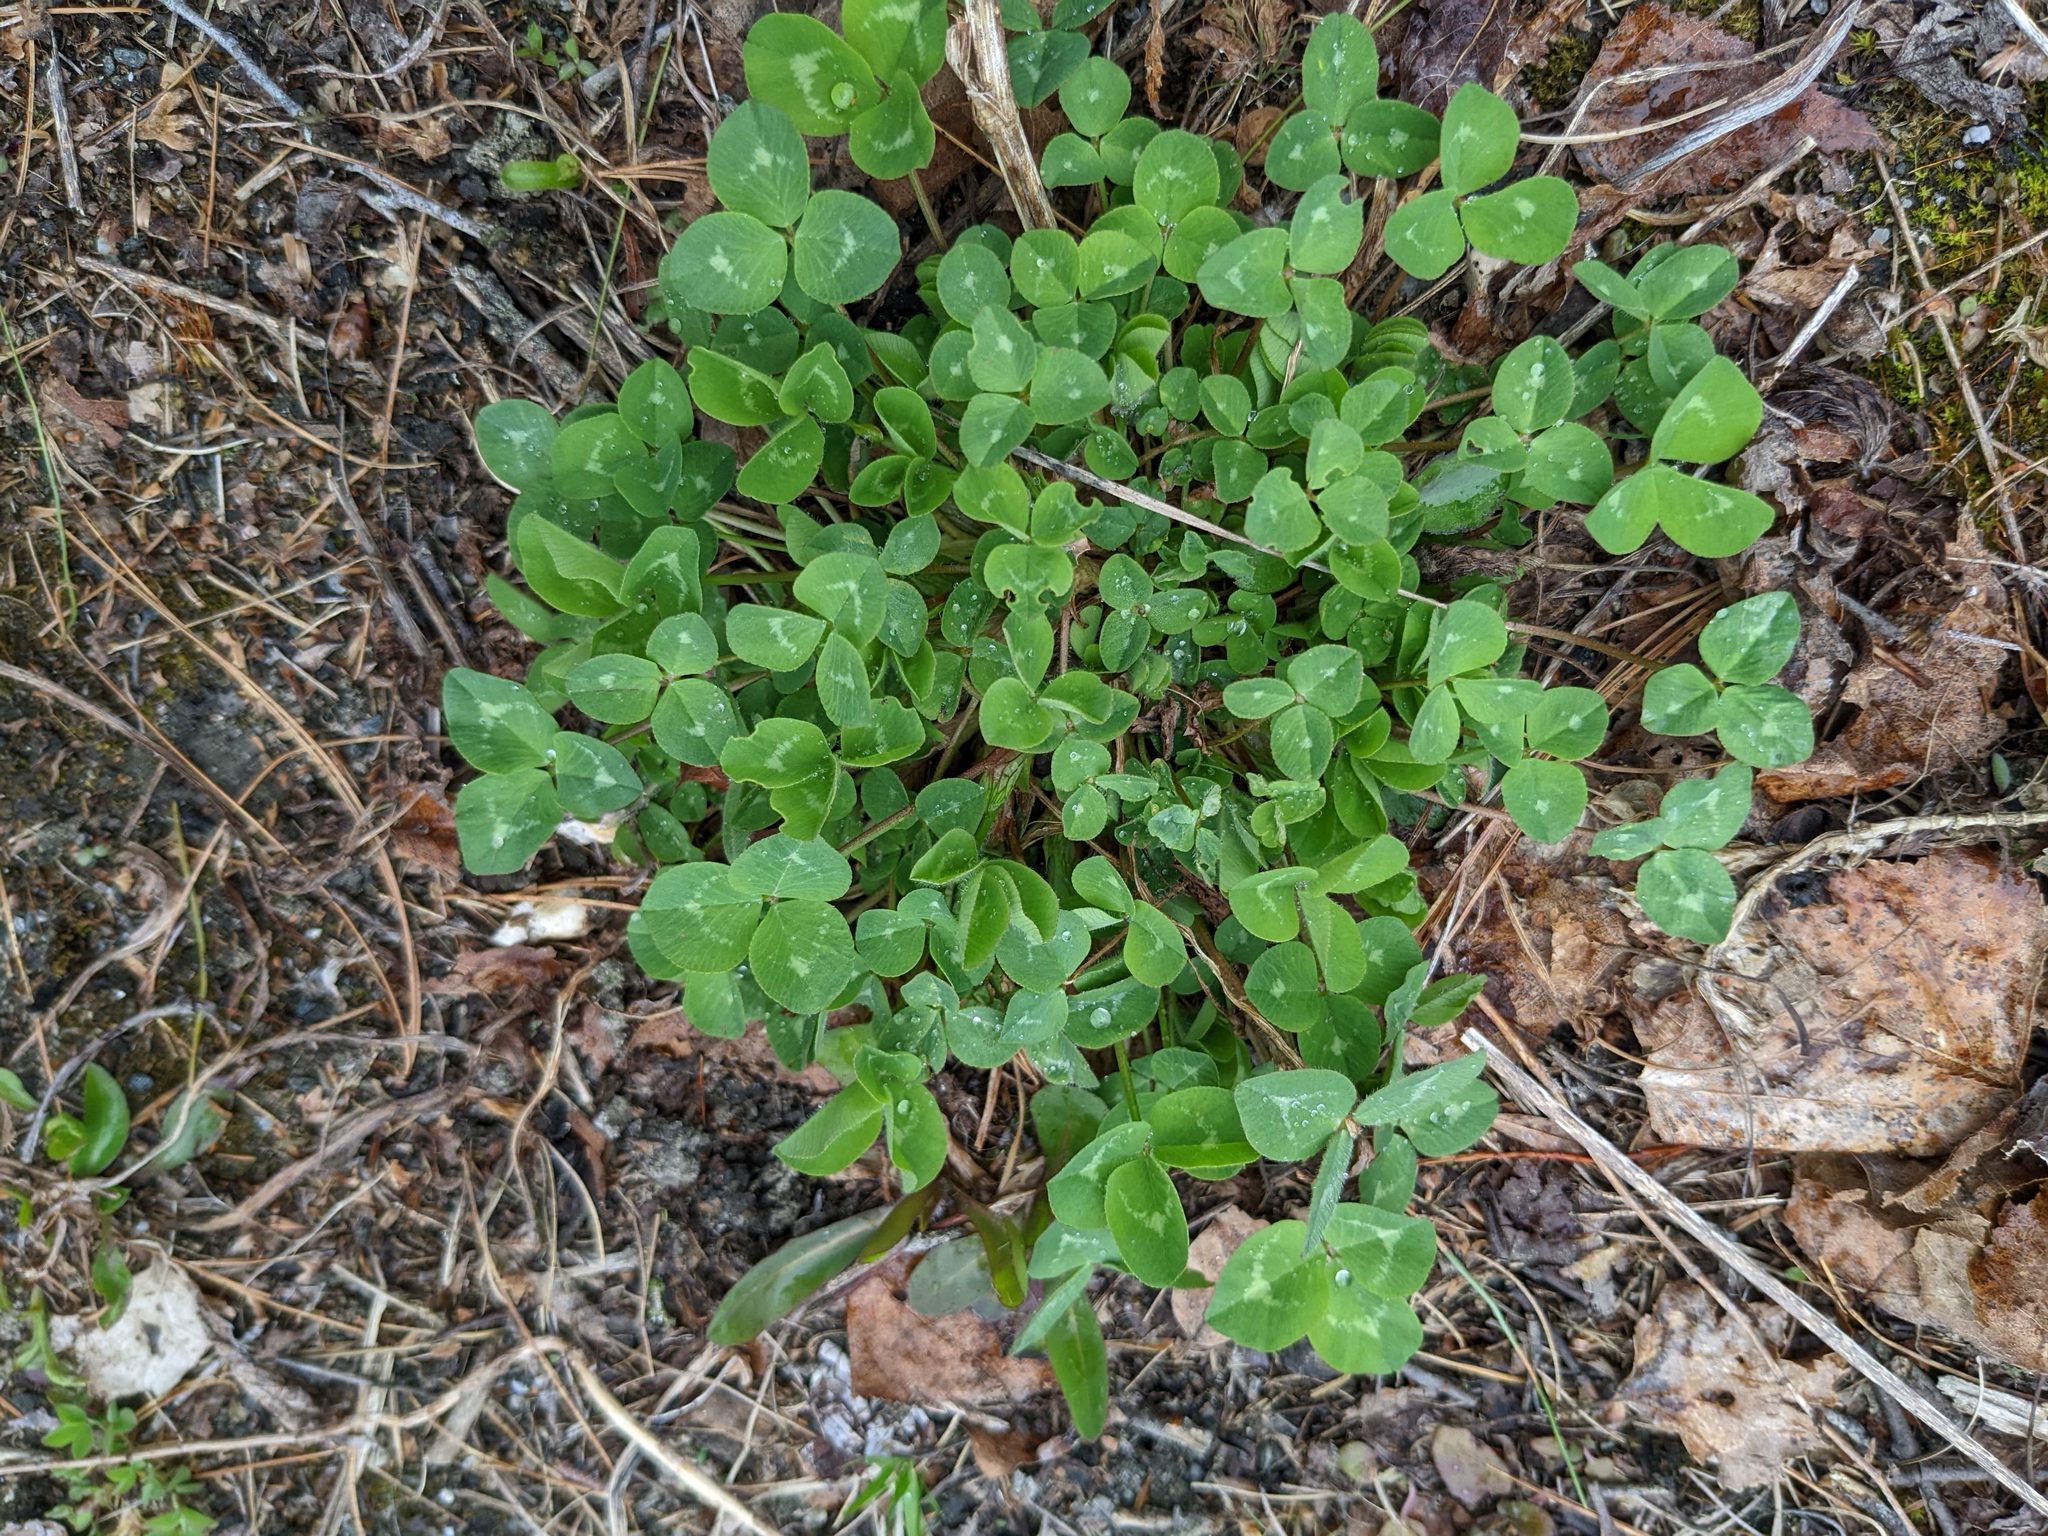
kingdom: Plantae
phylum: Tracheophyta
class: Magnoliopsida
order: Fabales
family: Fabaceae
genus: Trifolium
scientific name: Trifolium pratense
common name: Red clover
